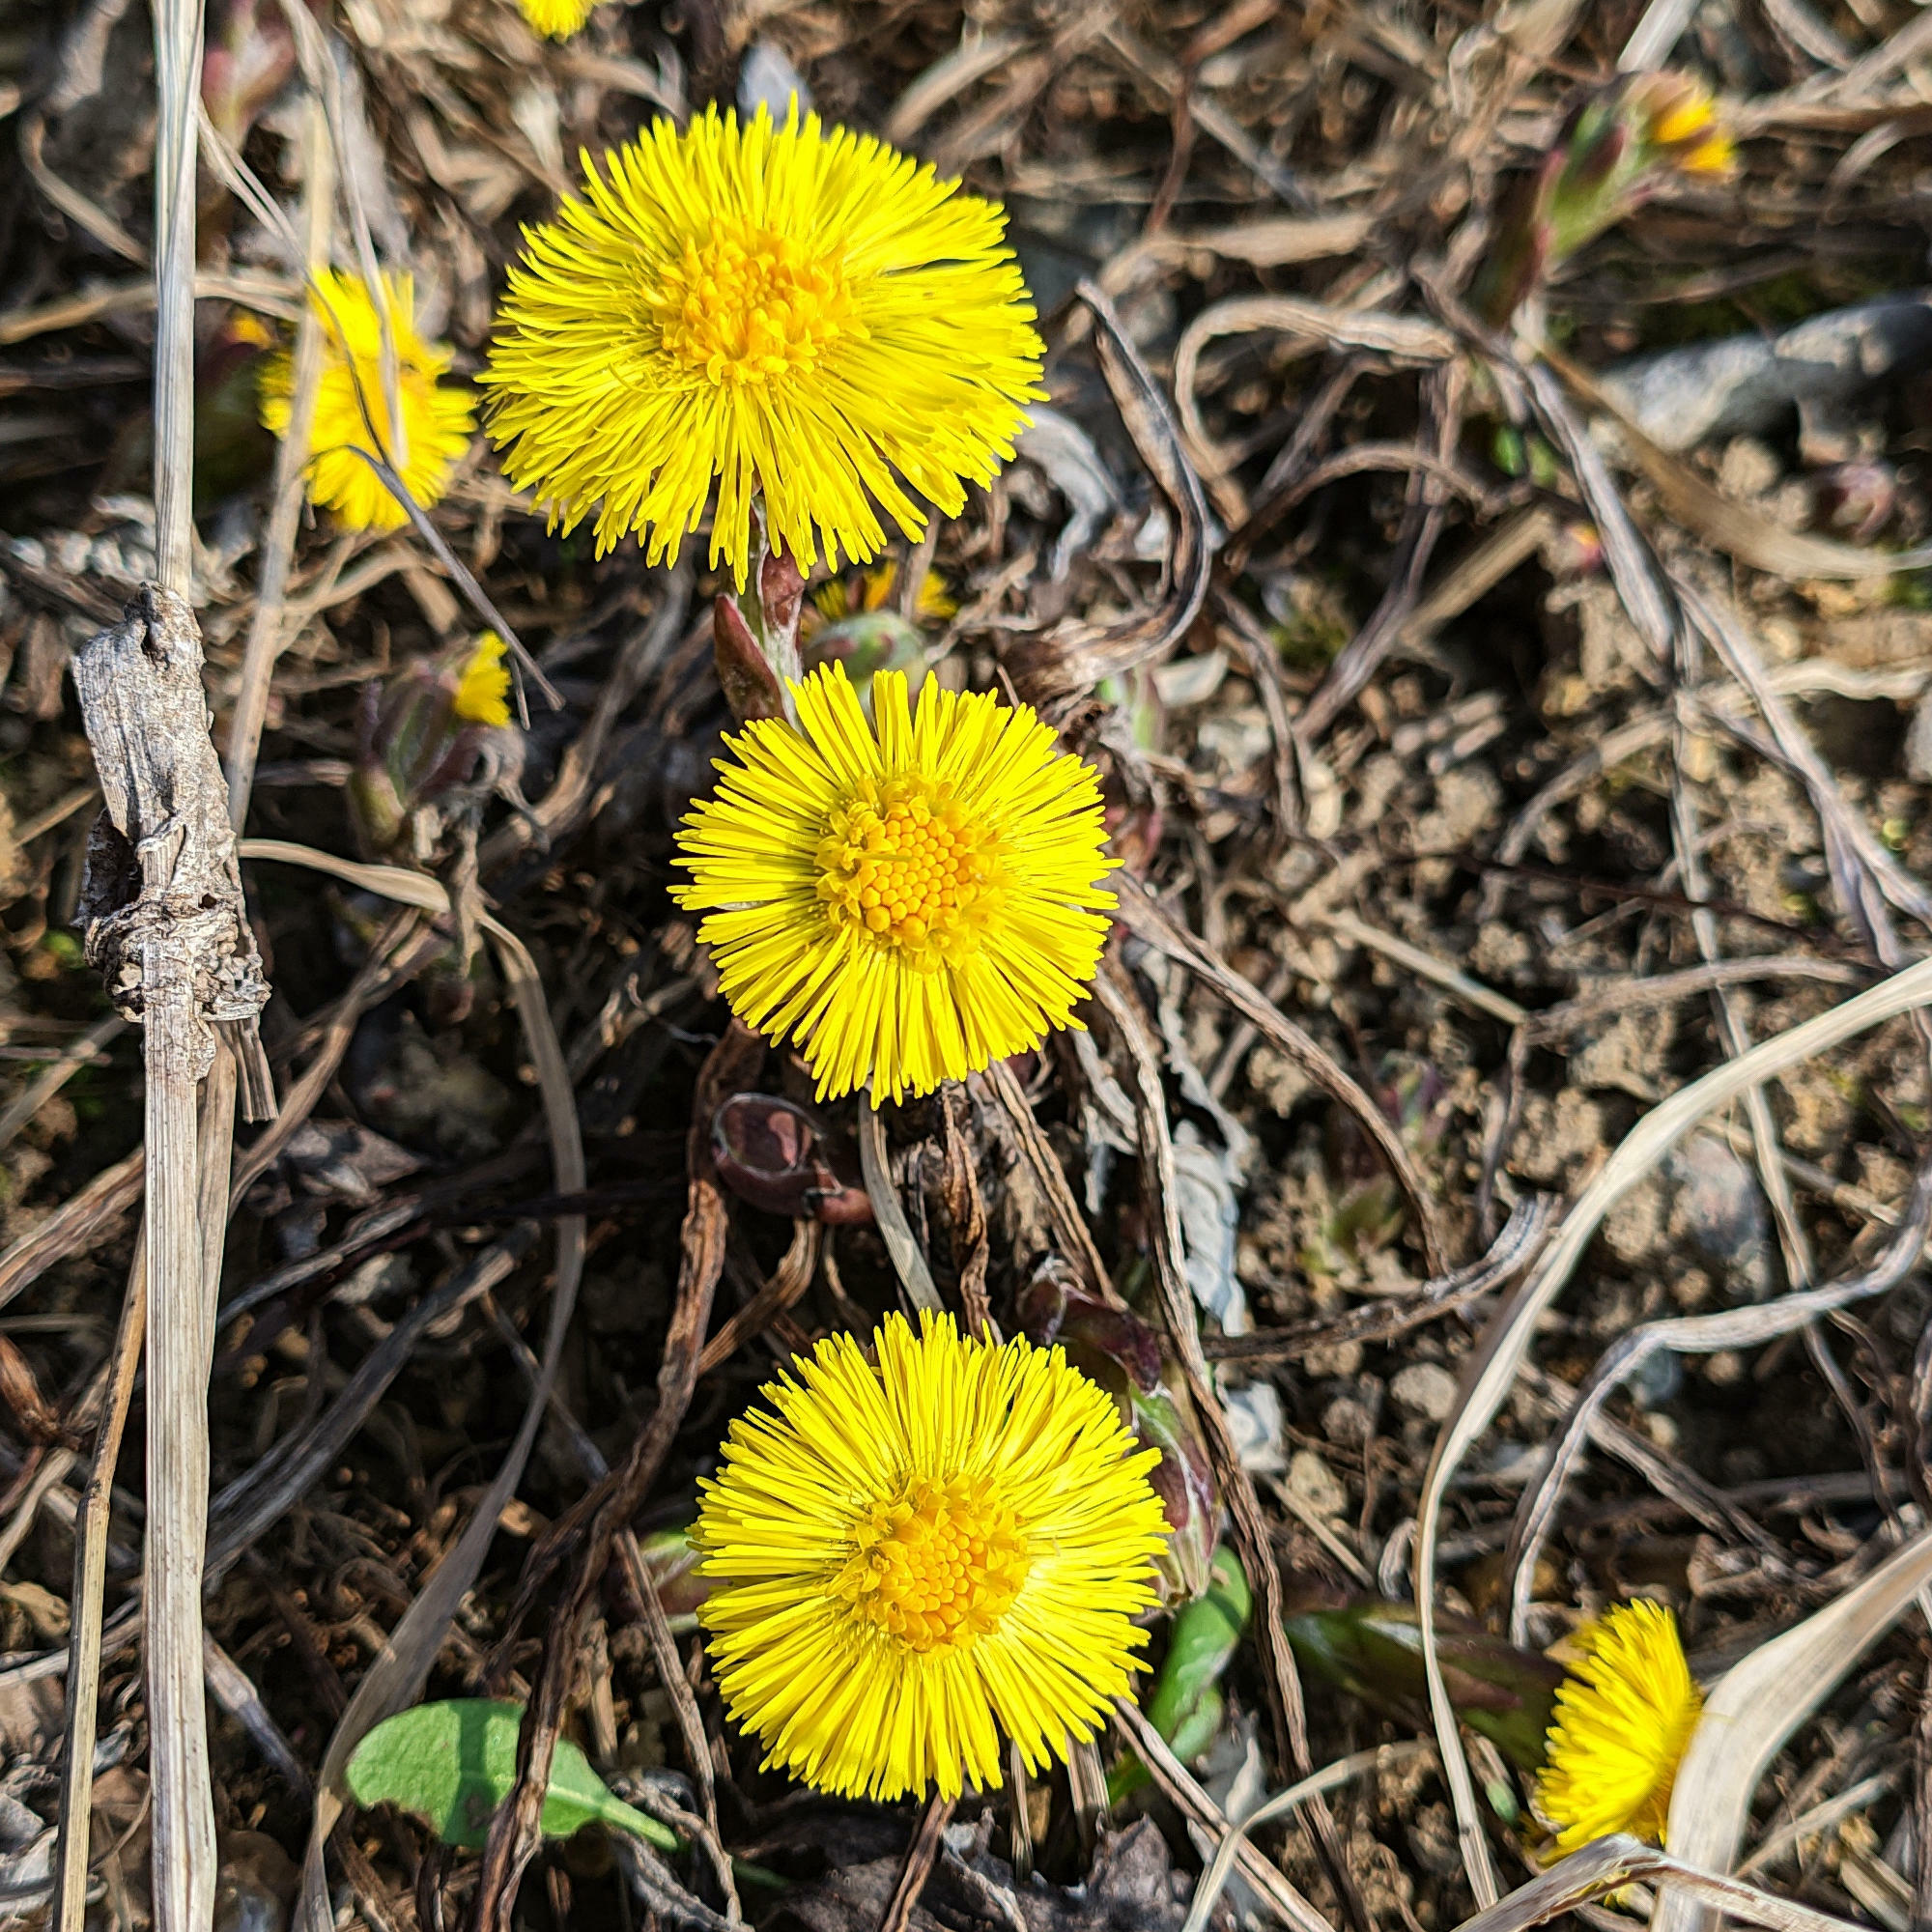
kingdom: Plantae
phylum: Tracheophyta
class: Magnoliopsida
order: Asterales
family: Asteraceae
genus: Tussilago
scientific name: Tussilago farfara
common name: Coltsfoot
